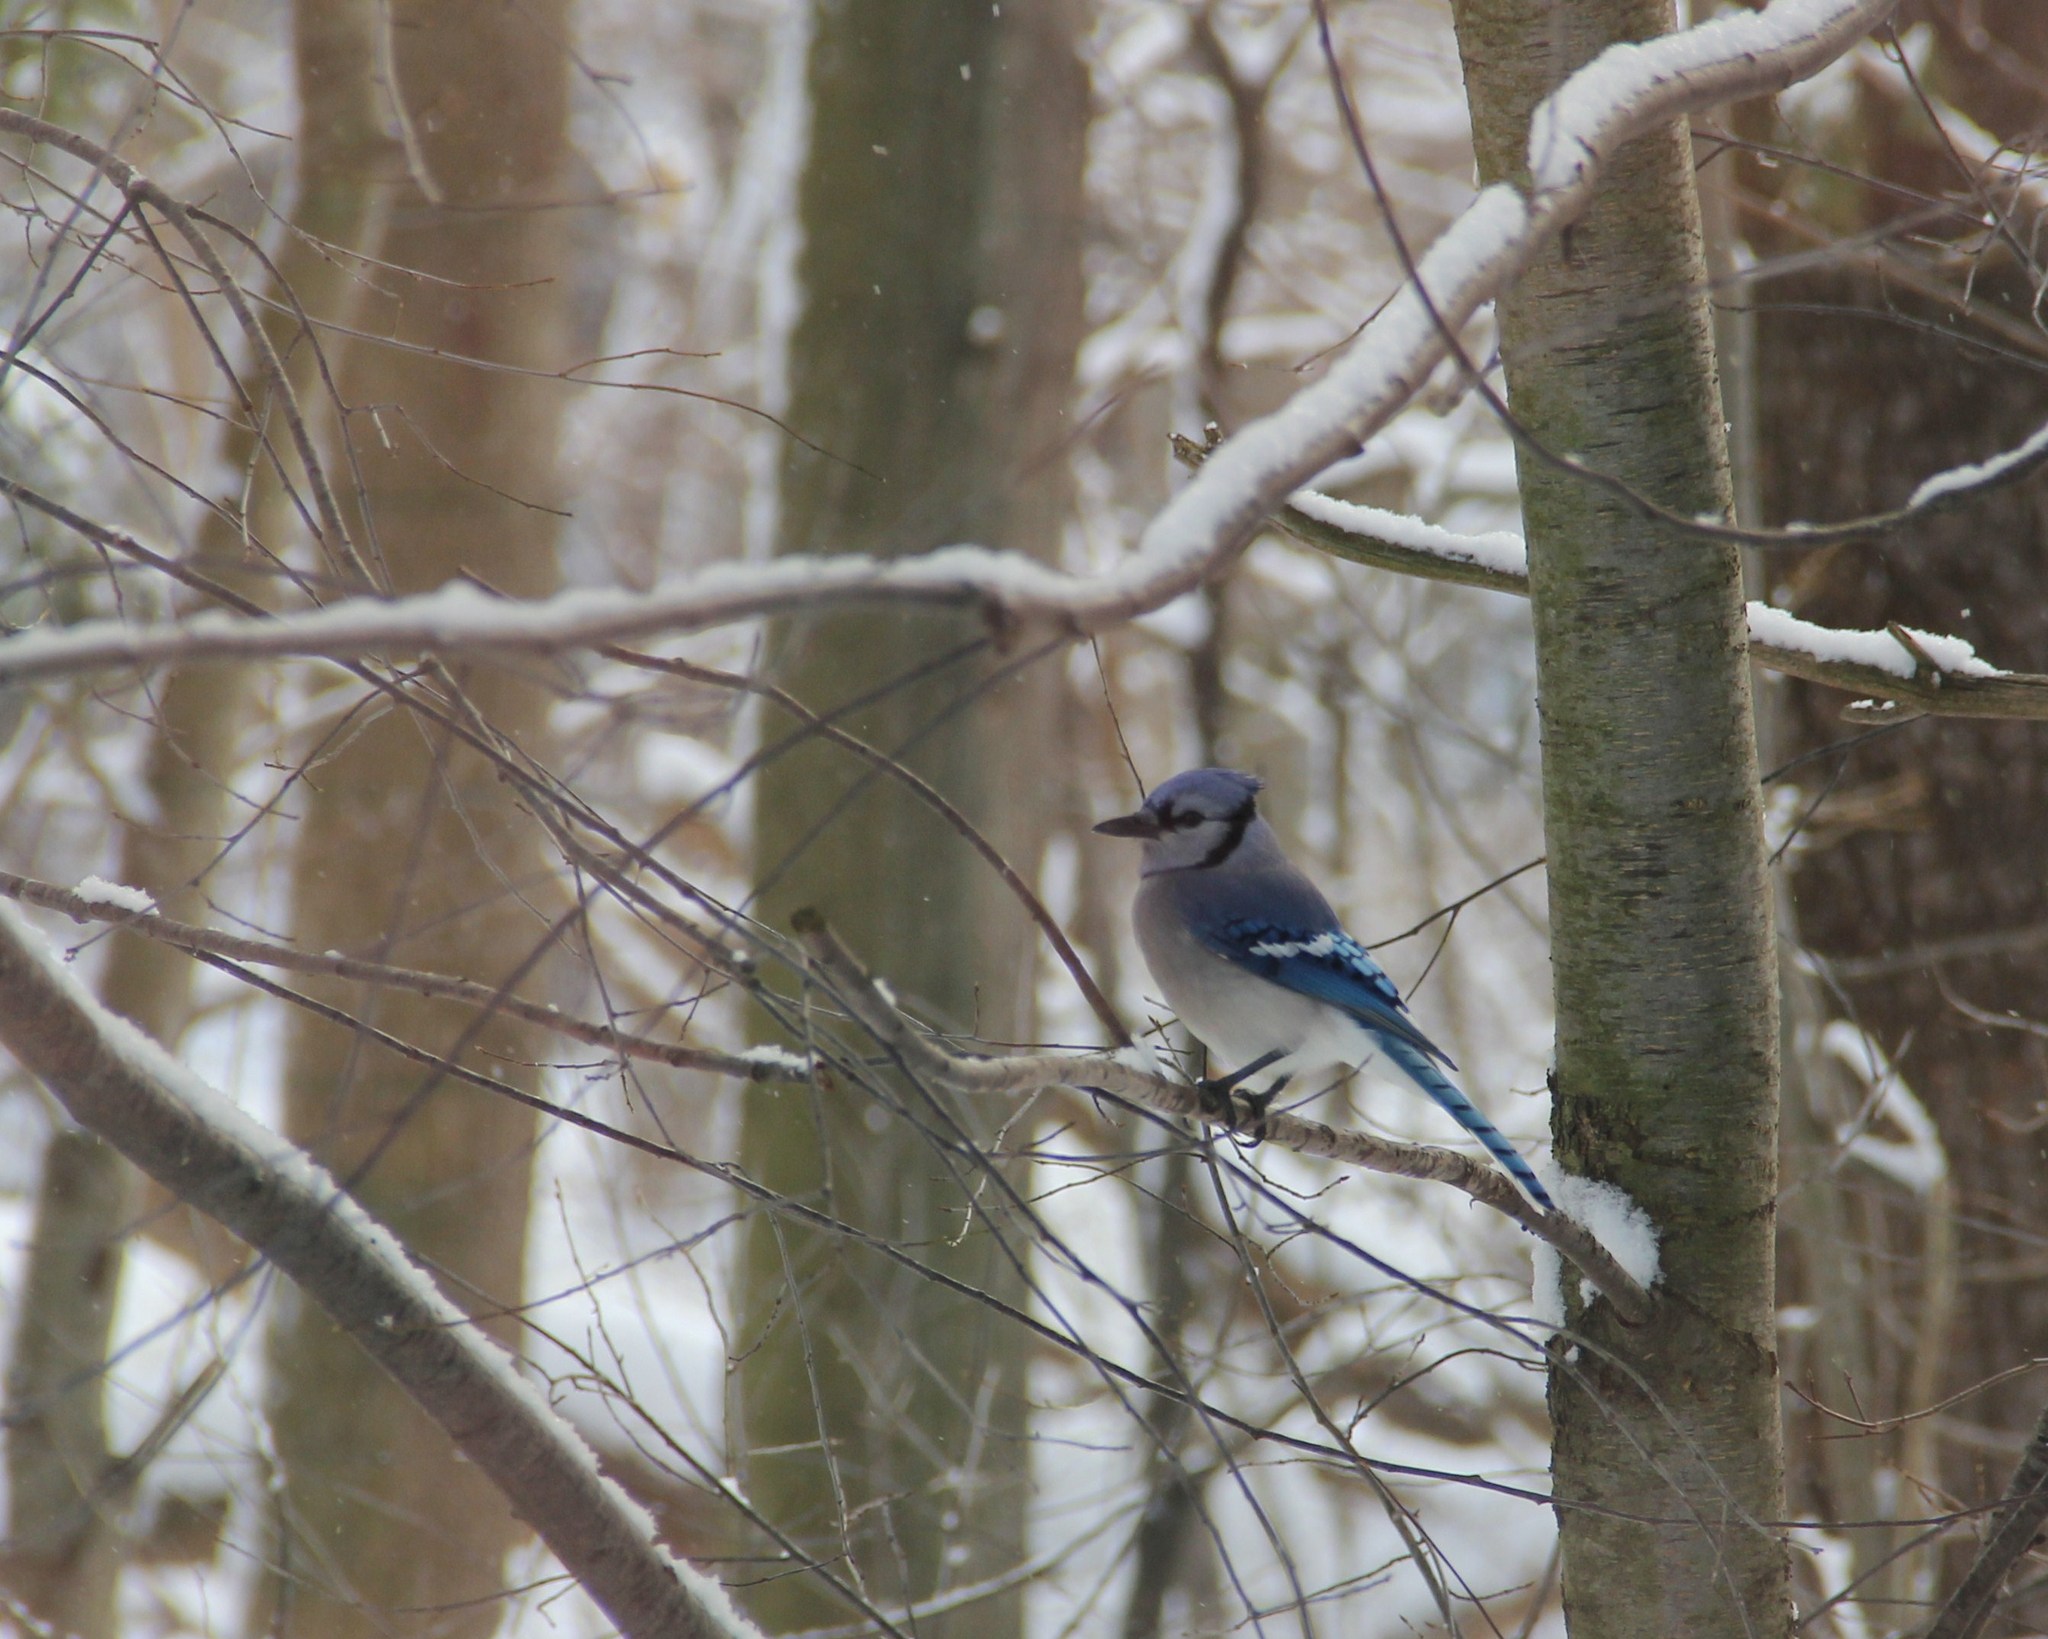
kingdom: Animalia
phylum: Chordata
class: Aves
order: Passeriformes
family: Corvidae
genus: Cyanocitta
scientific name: Cyanocitta cristata
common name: Blue jay
